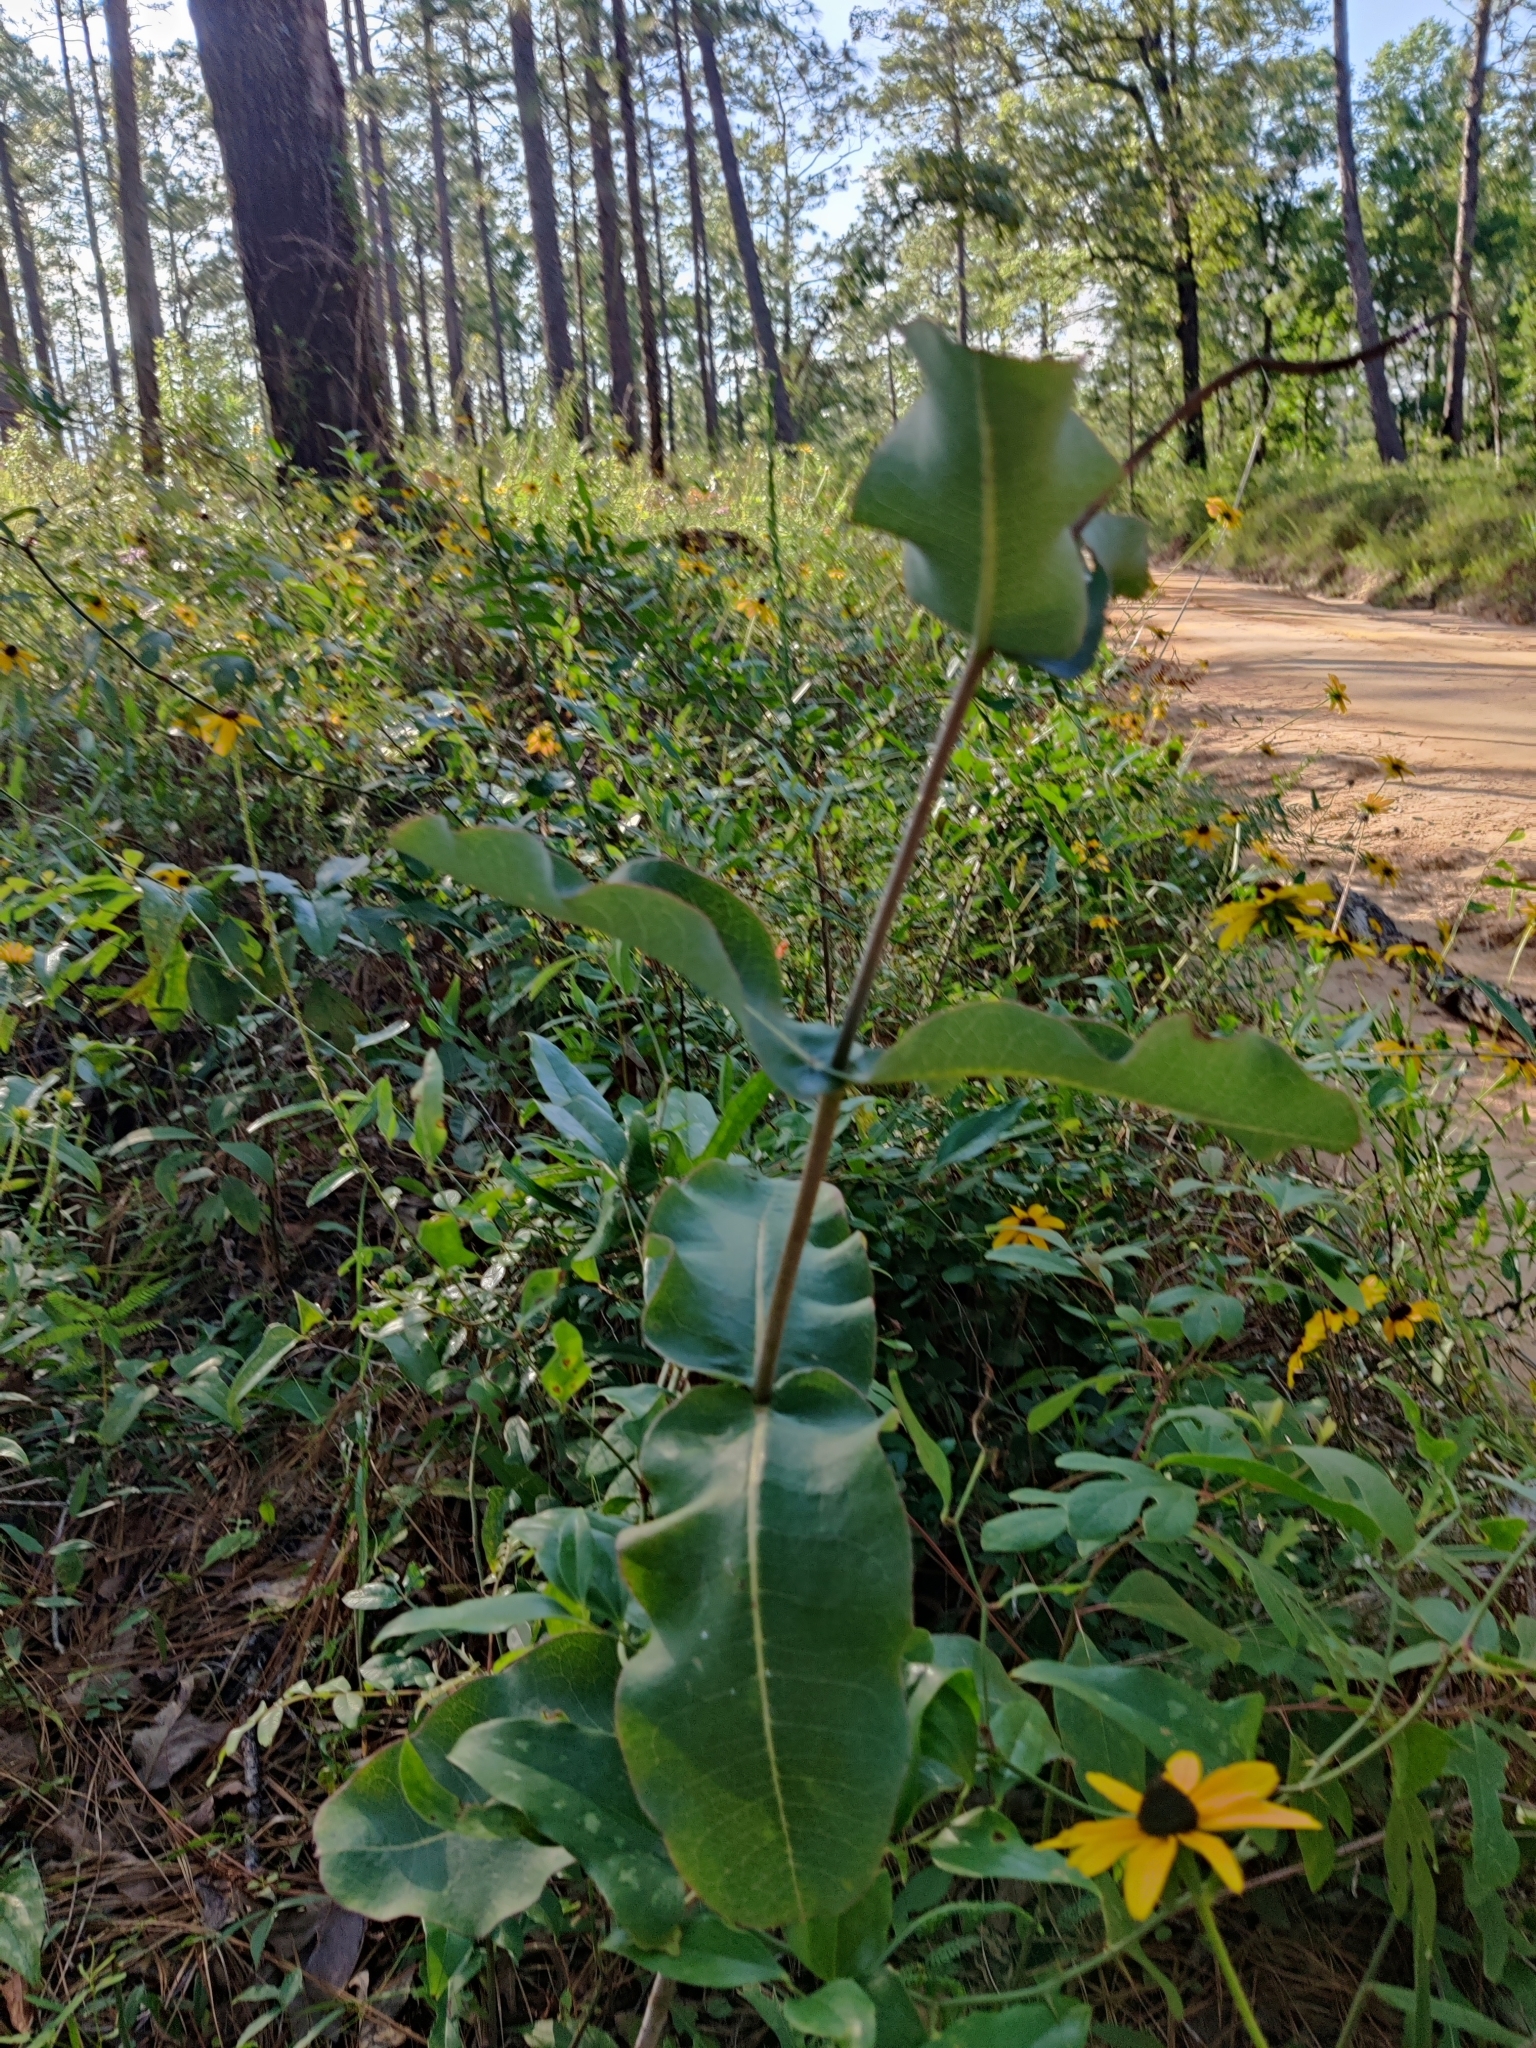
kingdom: Plantae
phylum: Tracheophyta
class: Magnoliopsida
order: Gentianales
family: Apocynaceae
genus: Asclepias
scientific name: Asclepias amplexicaulis
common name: Blunt-leaf milkweed
